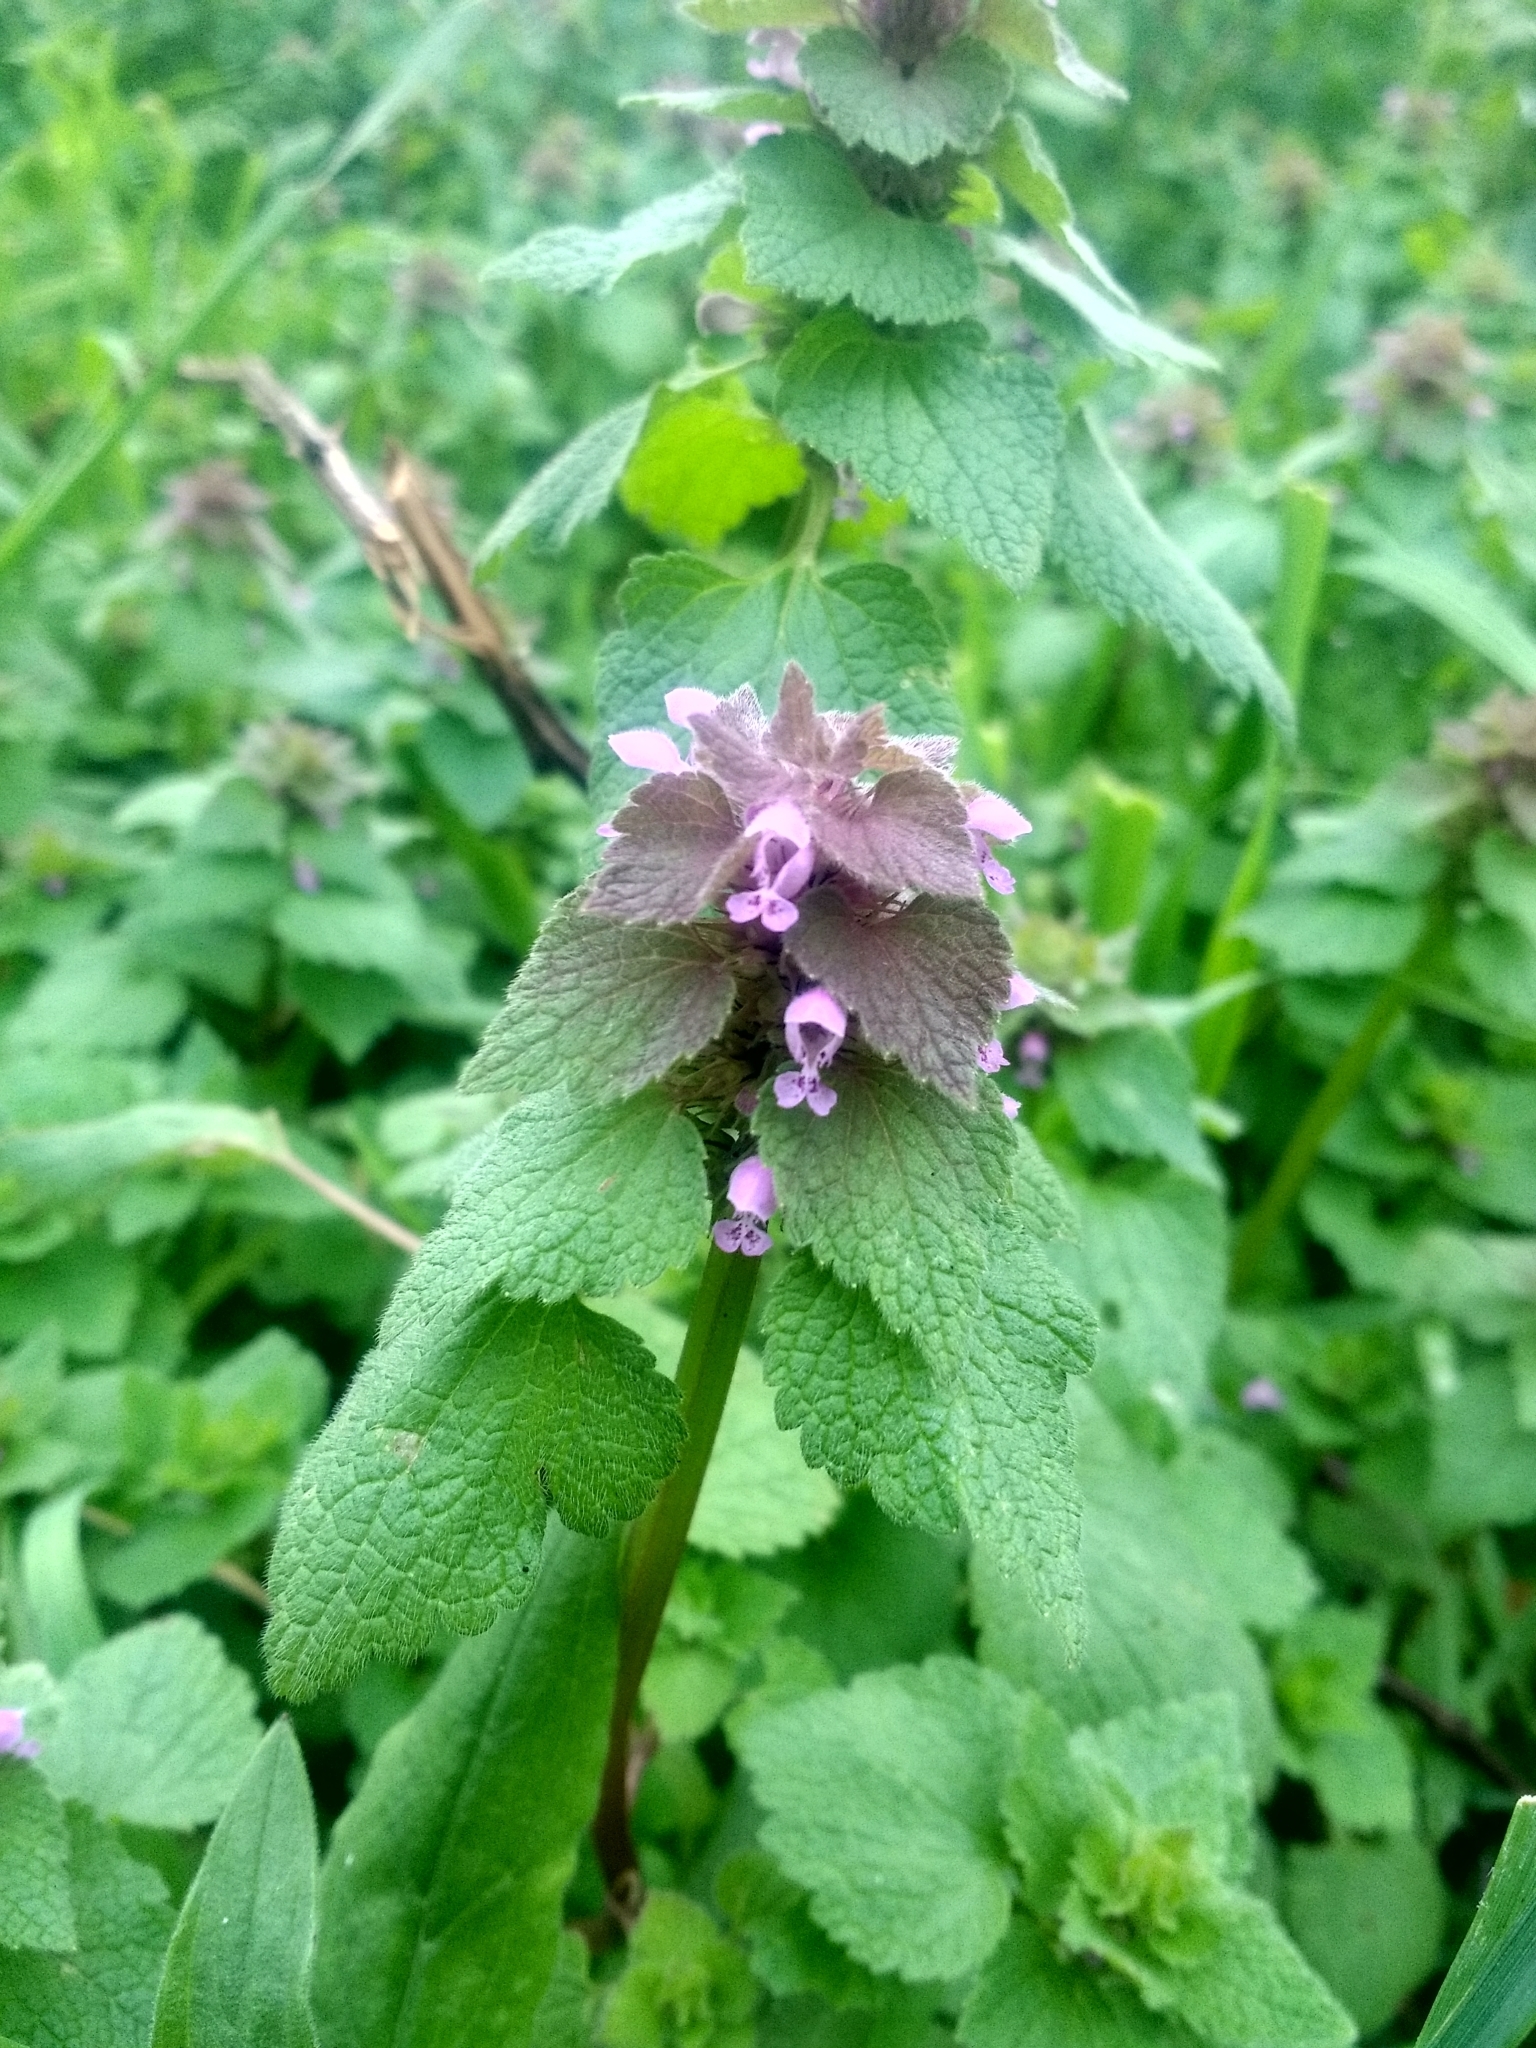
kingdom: Plantae
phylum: Tracheophyta
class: Magnoliopsida
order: Lamiales
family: Lamiaceae
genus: Lamium
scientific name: Lamium purpureum
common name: Red dead-nettle
